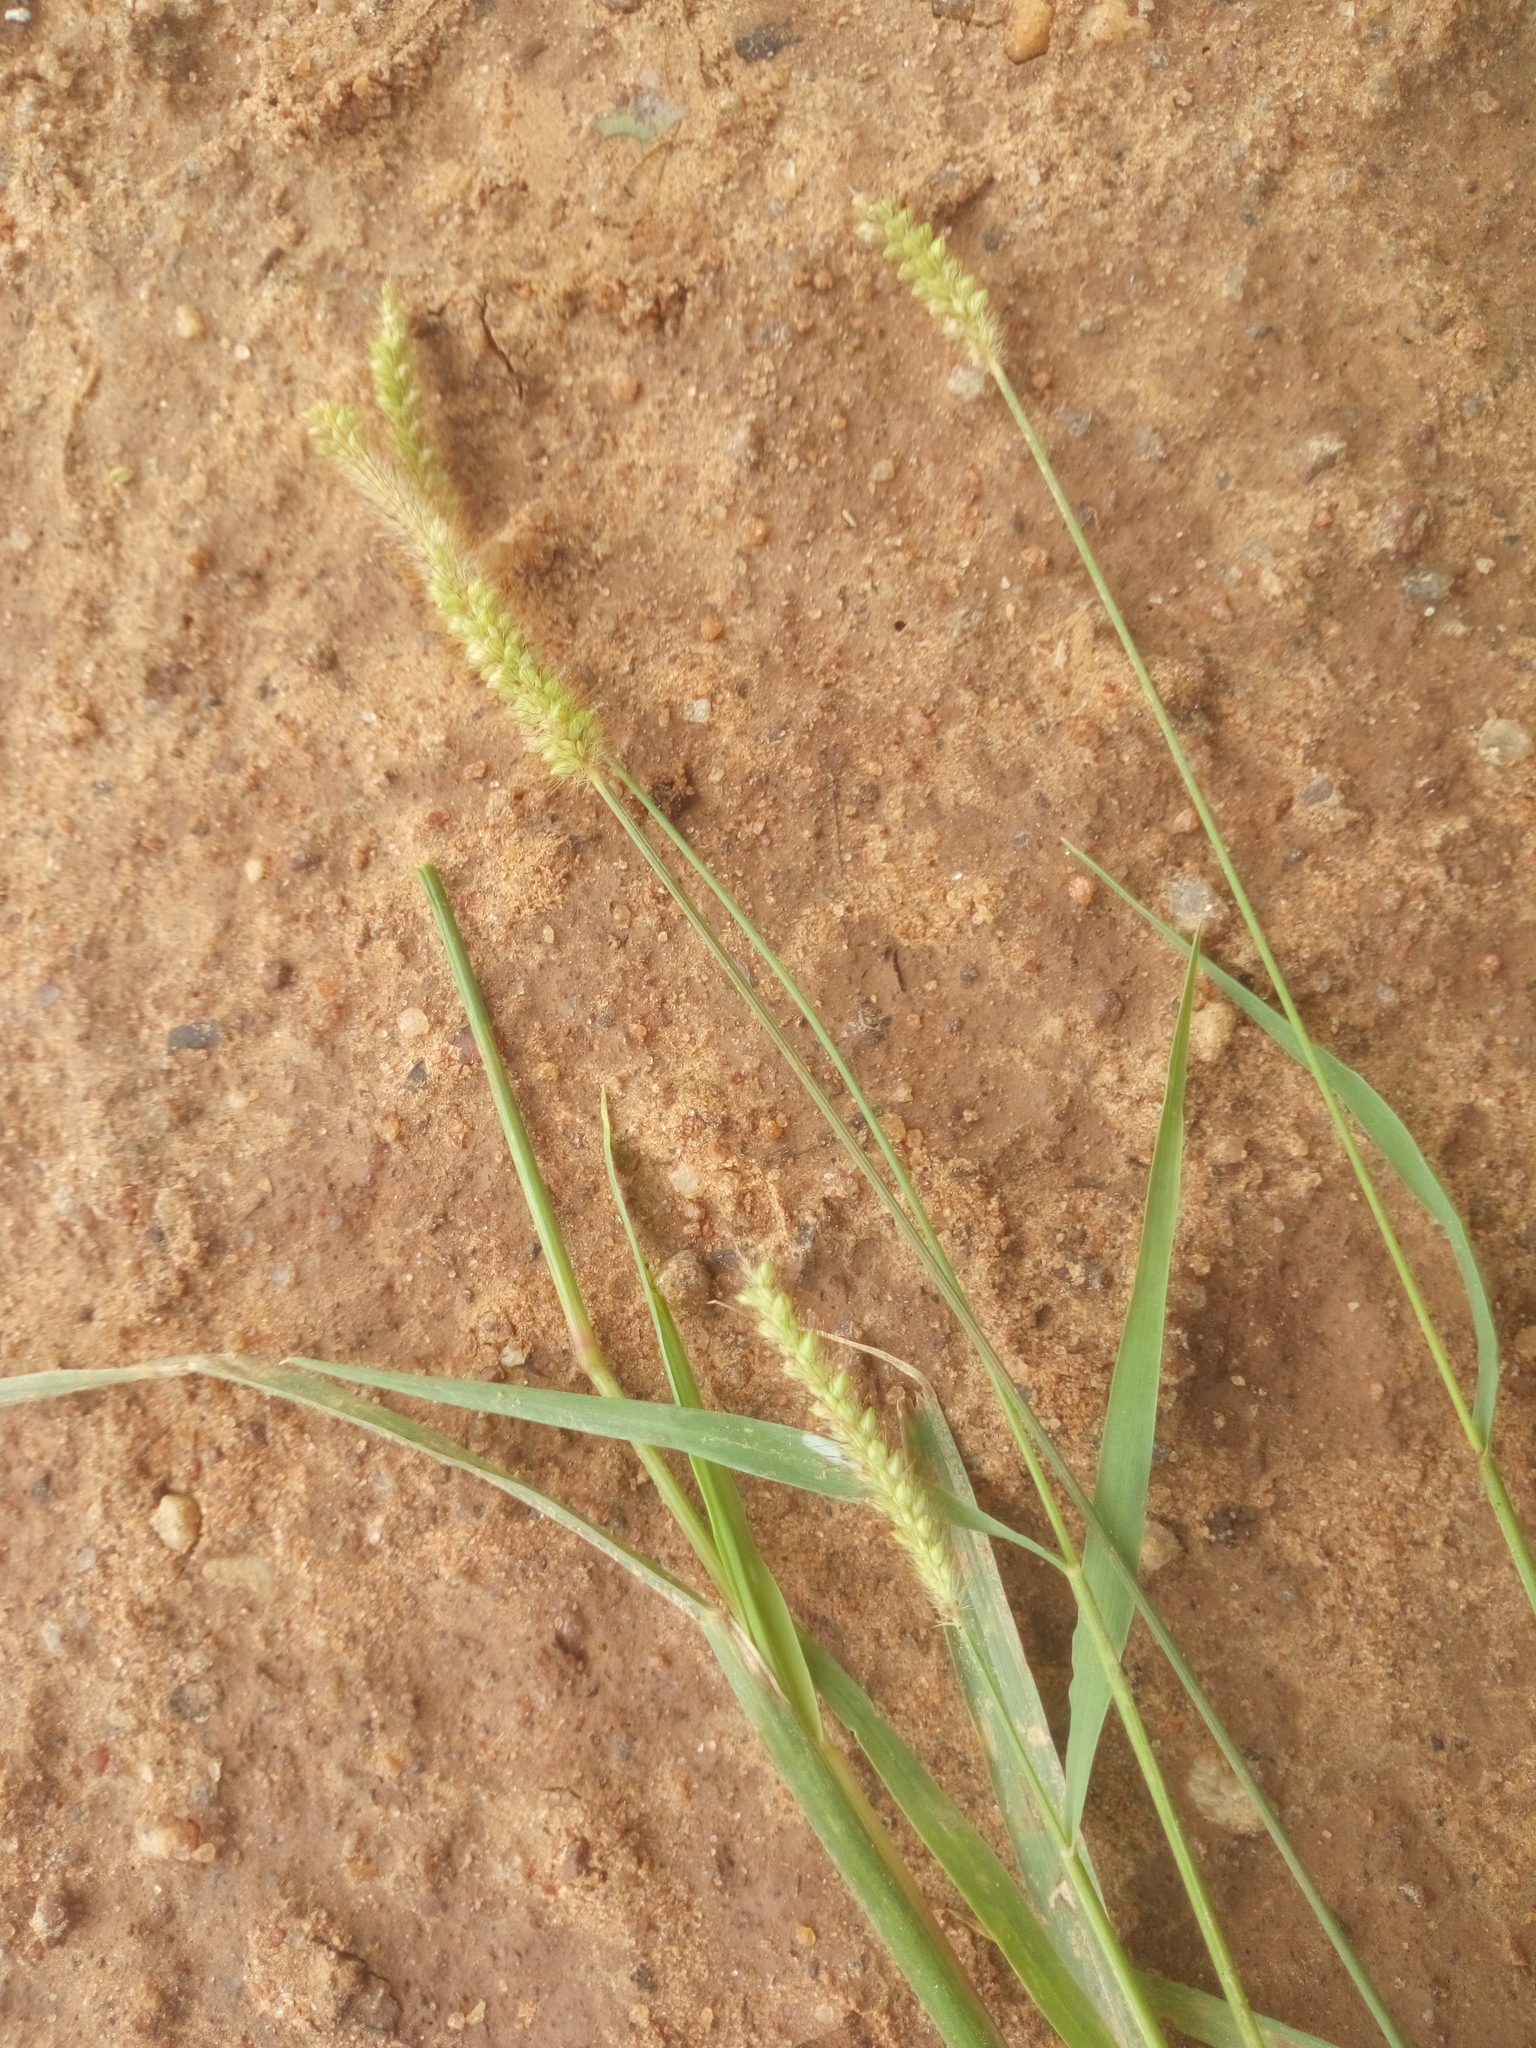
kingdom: Plantae
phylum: Tracheophyta
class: Liliopsida
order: Poales
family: Poaceae
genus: Setaria
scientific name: Setaria pumila
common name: Yellow bristle-grass
